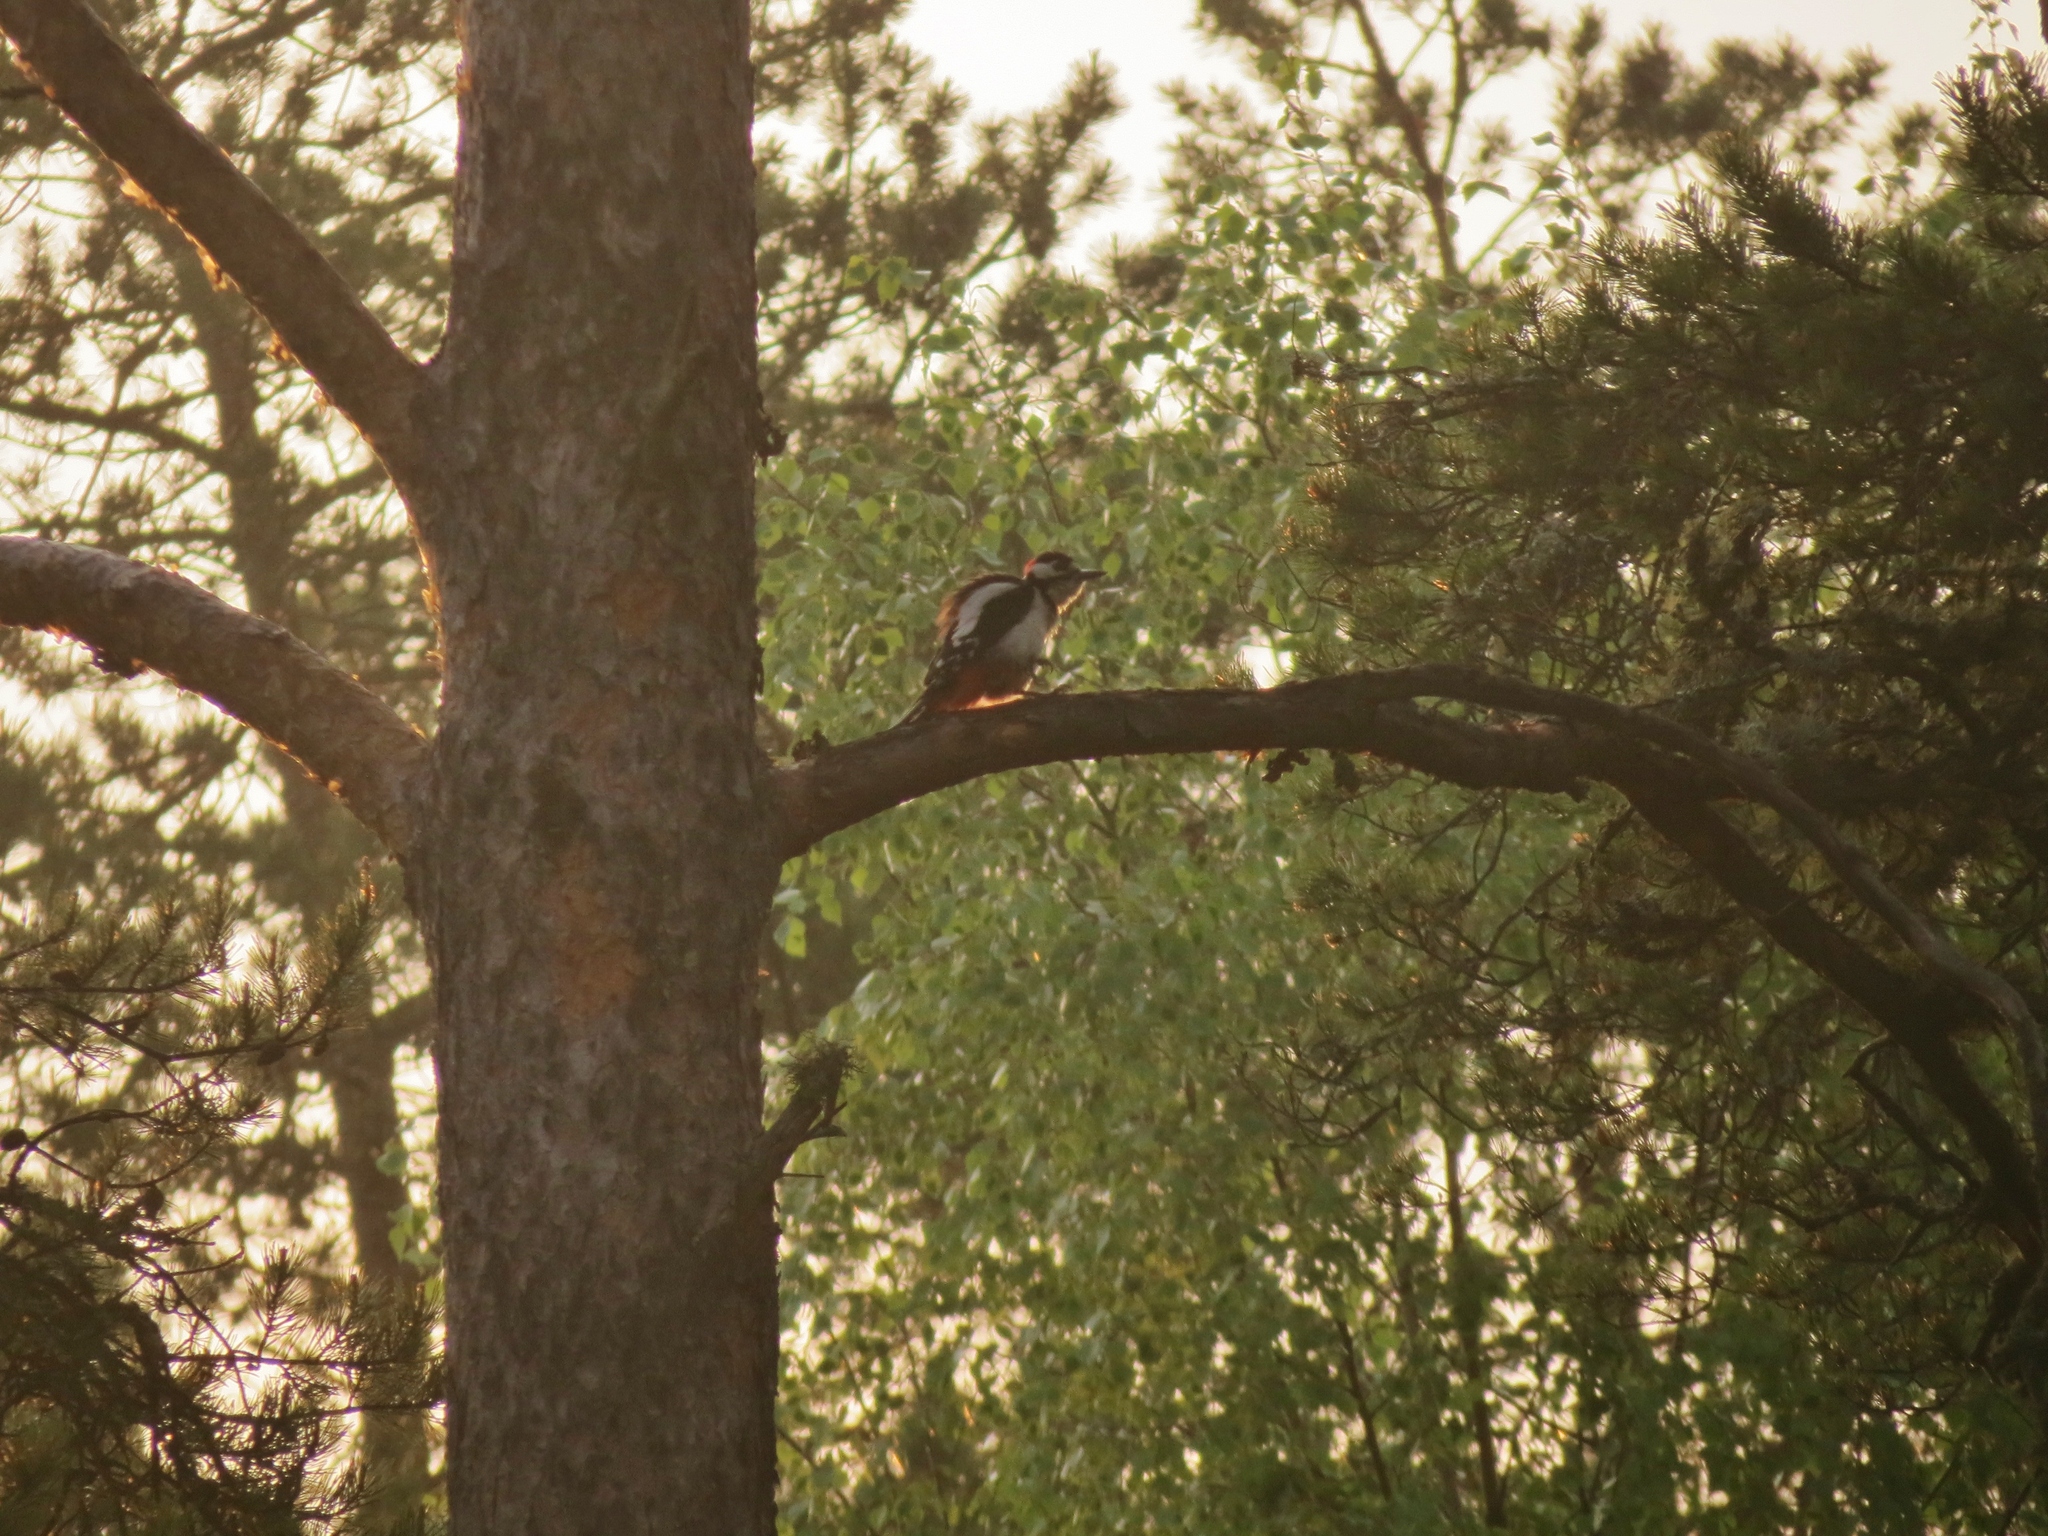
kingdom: Animalia
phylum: Chordata
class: Aves
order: Piciformes
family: Picidae
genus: Dendrocopos
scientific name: Dendrocopos major
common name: Great spotted woodpecker
